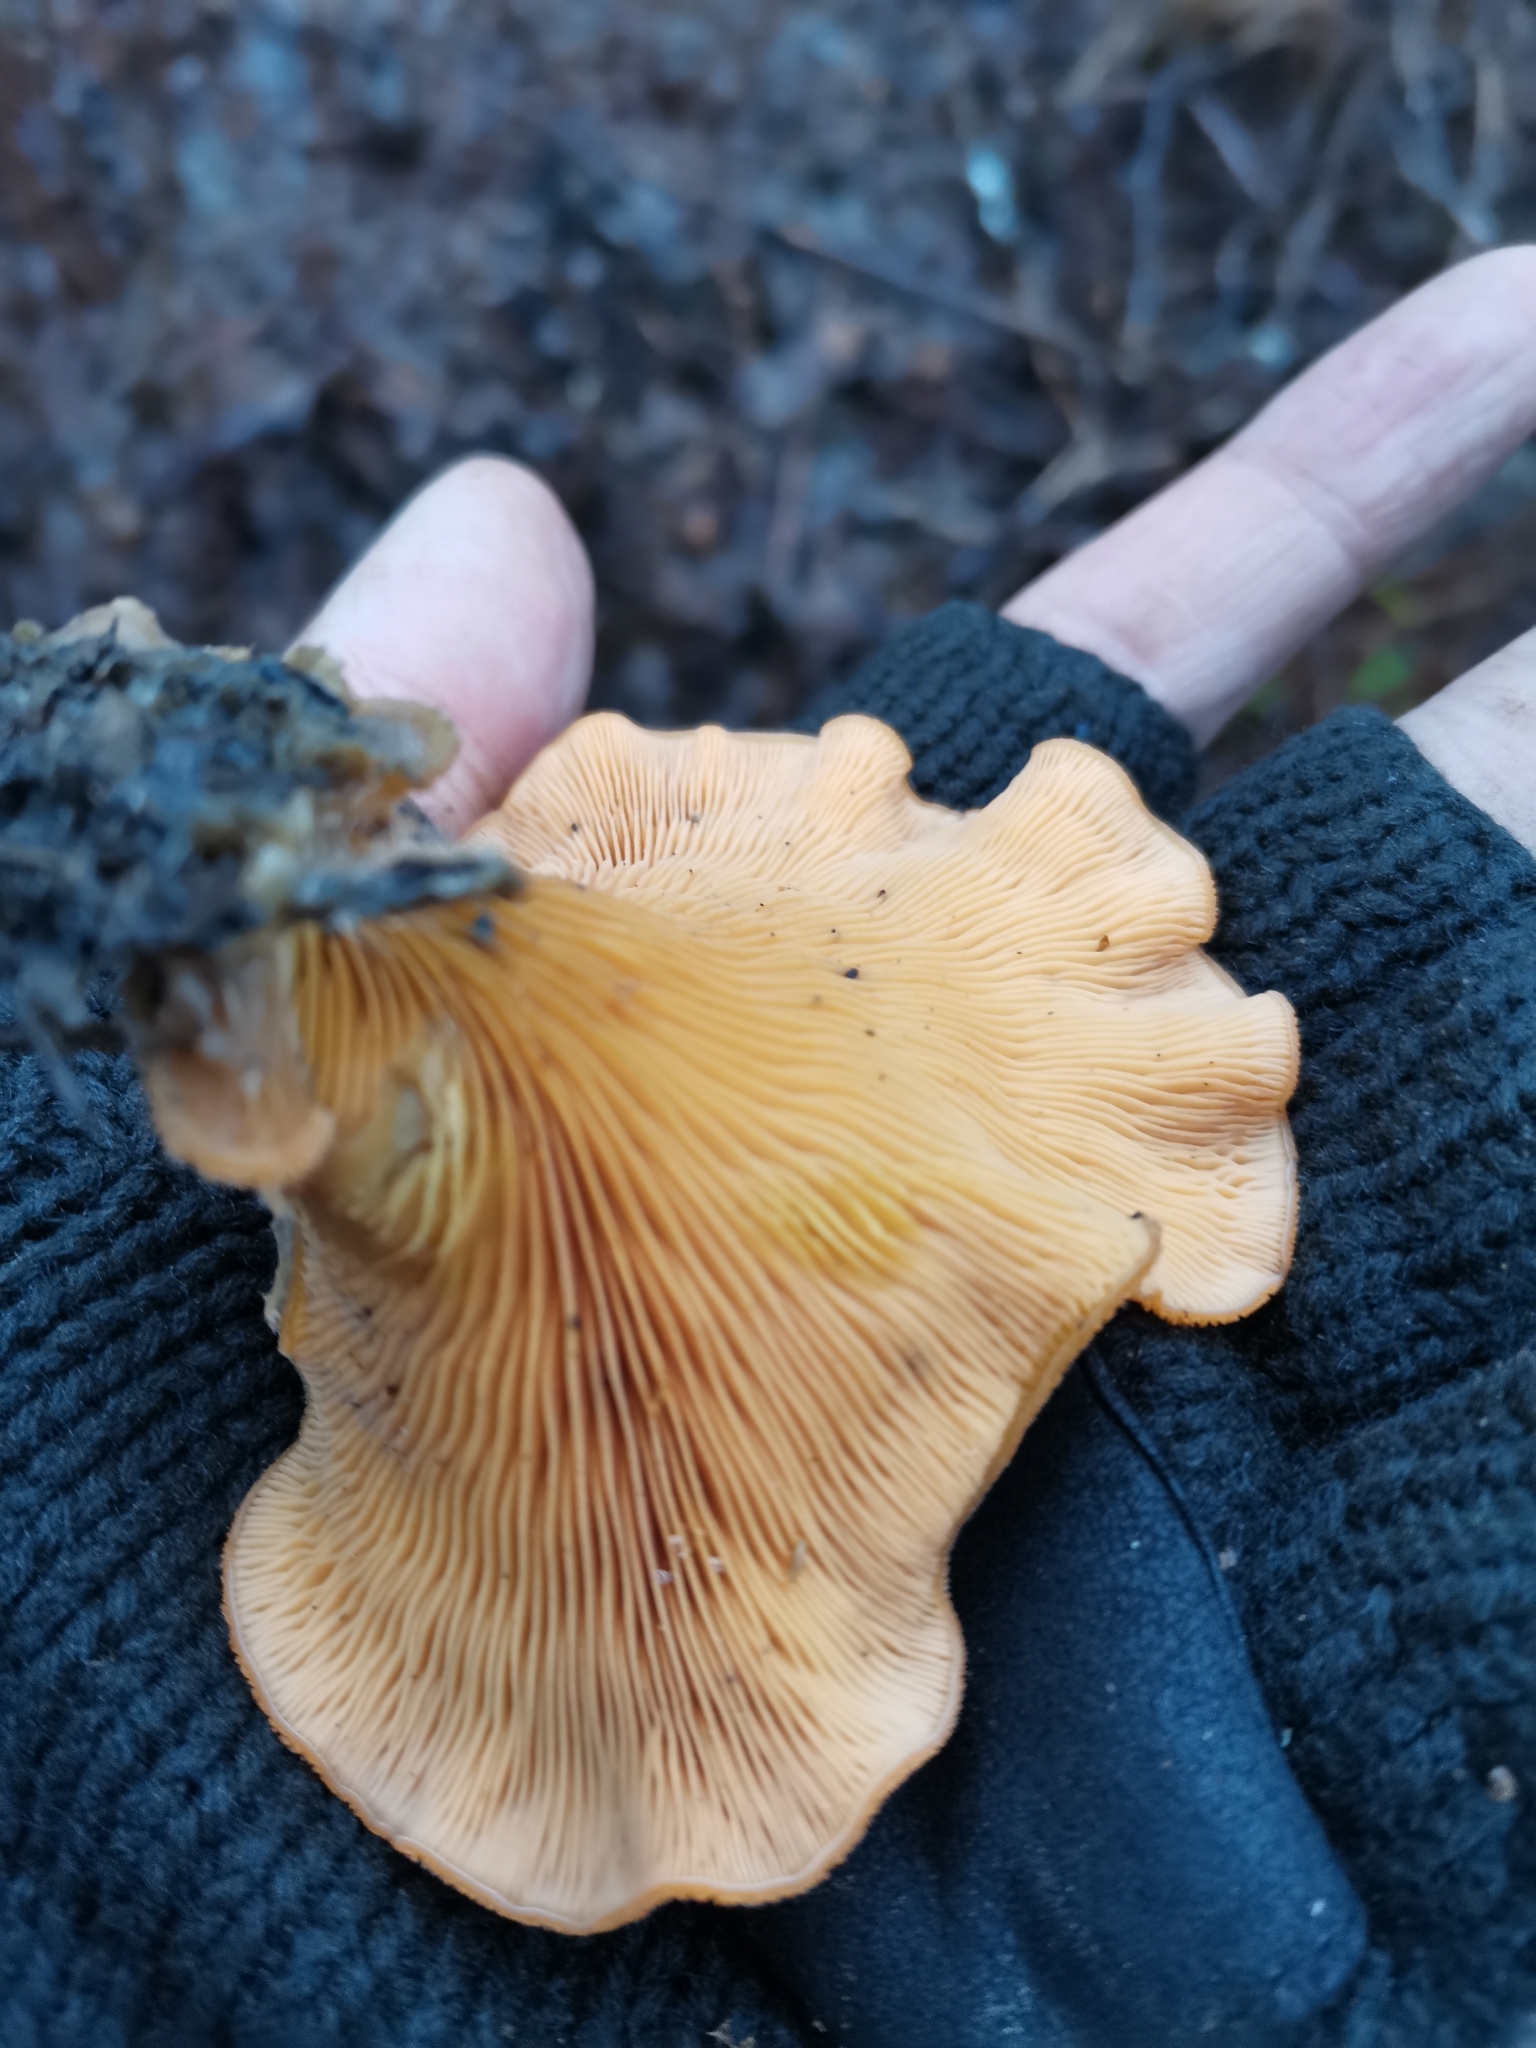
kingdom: Fungi
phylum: Basidiomycota
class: Agaricomycetes
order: Agaricales
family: Phyllotopsidaceae
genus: Phyllotopsis
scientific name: Phyllotopsis nidulans
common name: Orange mock oyster
